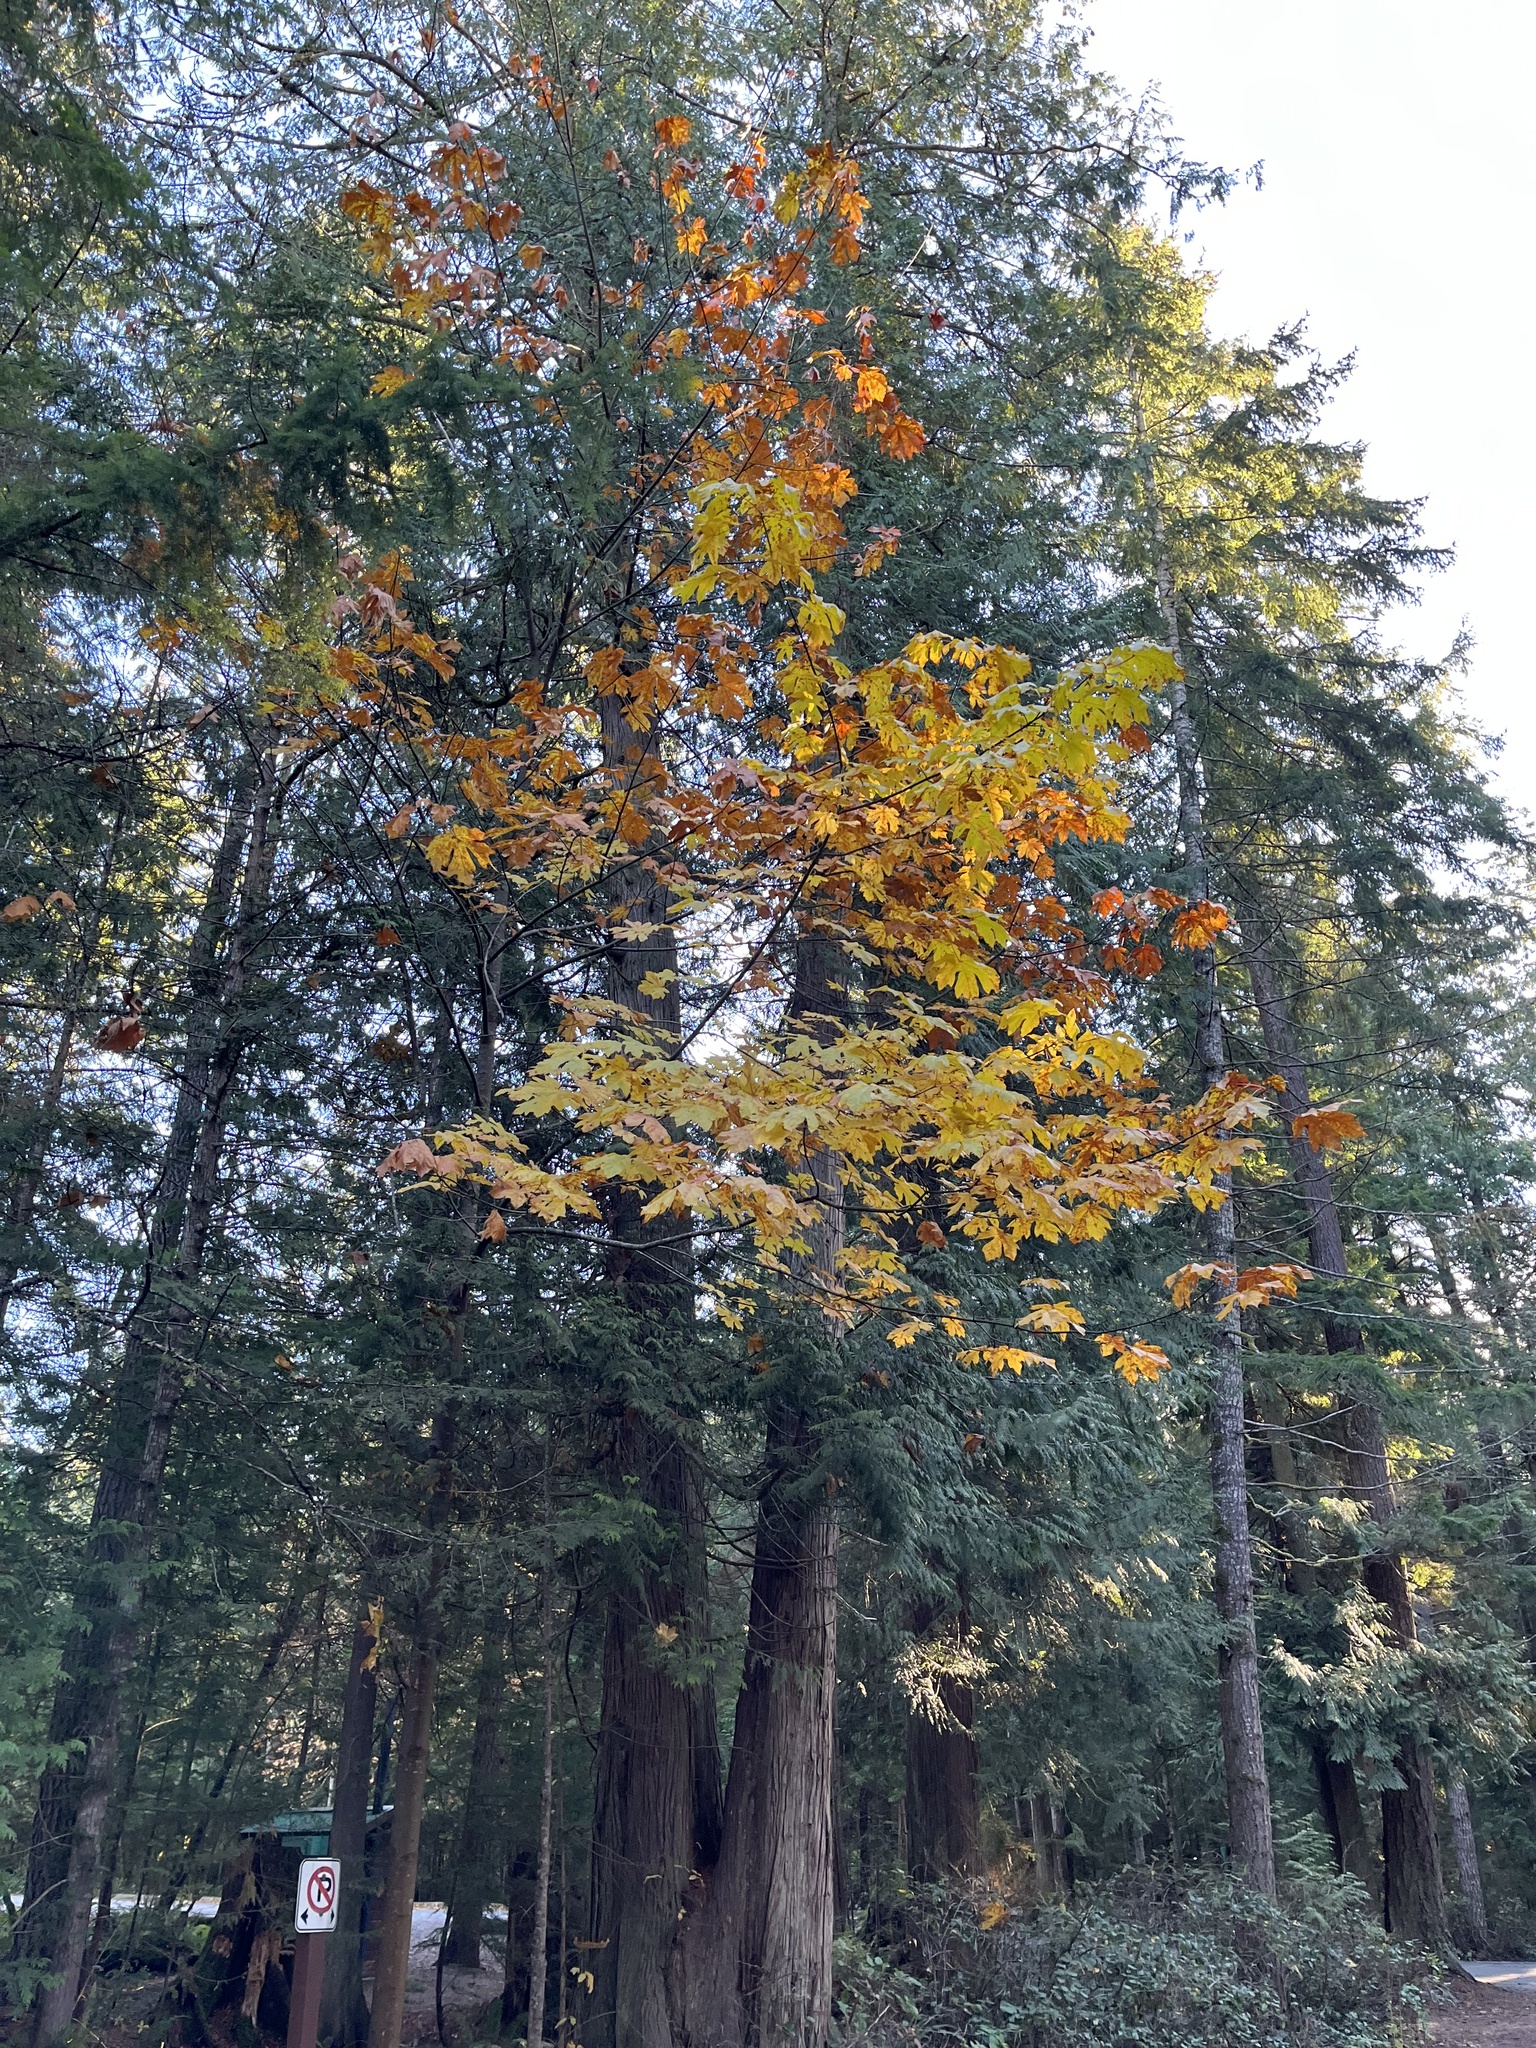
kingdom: Plantae
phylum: Tracheophyta
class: Magnoliopsida
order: Sapindales
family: Sapindaceae
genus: Acer
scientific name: Acer macrophyllum
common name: Oregon maple
